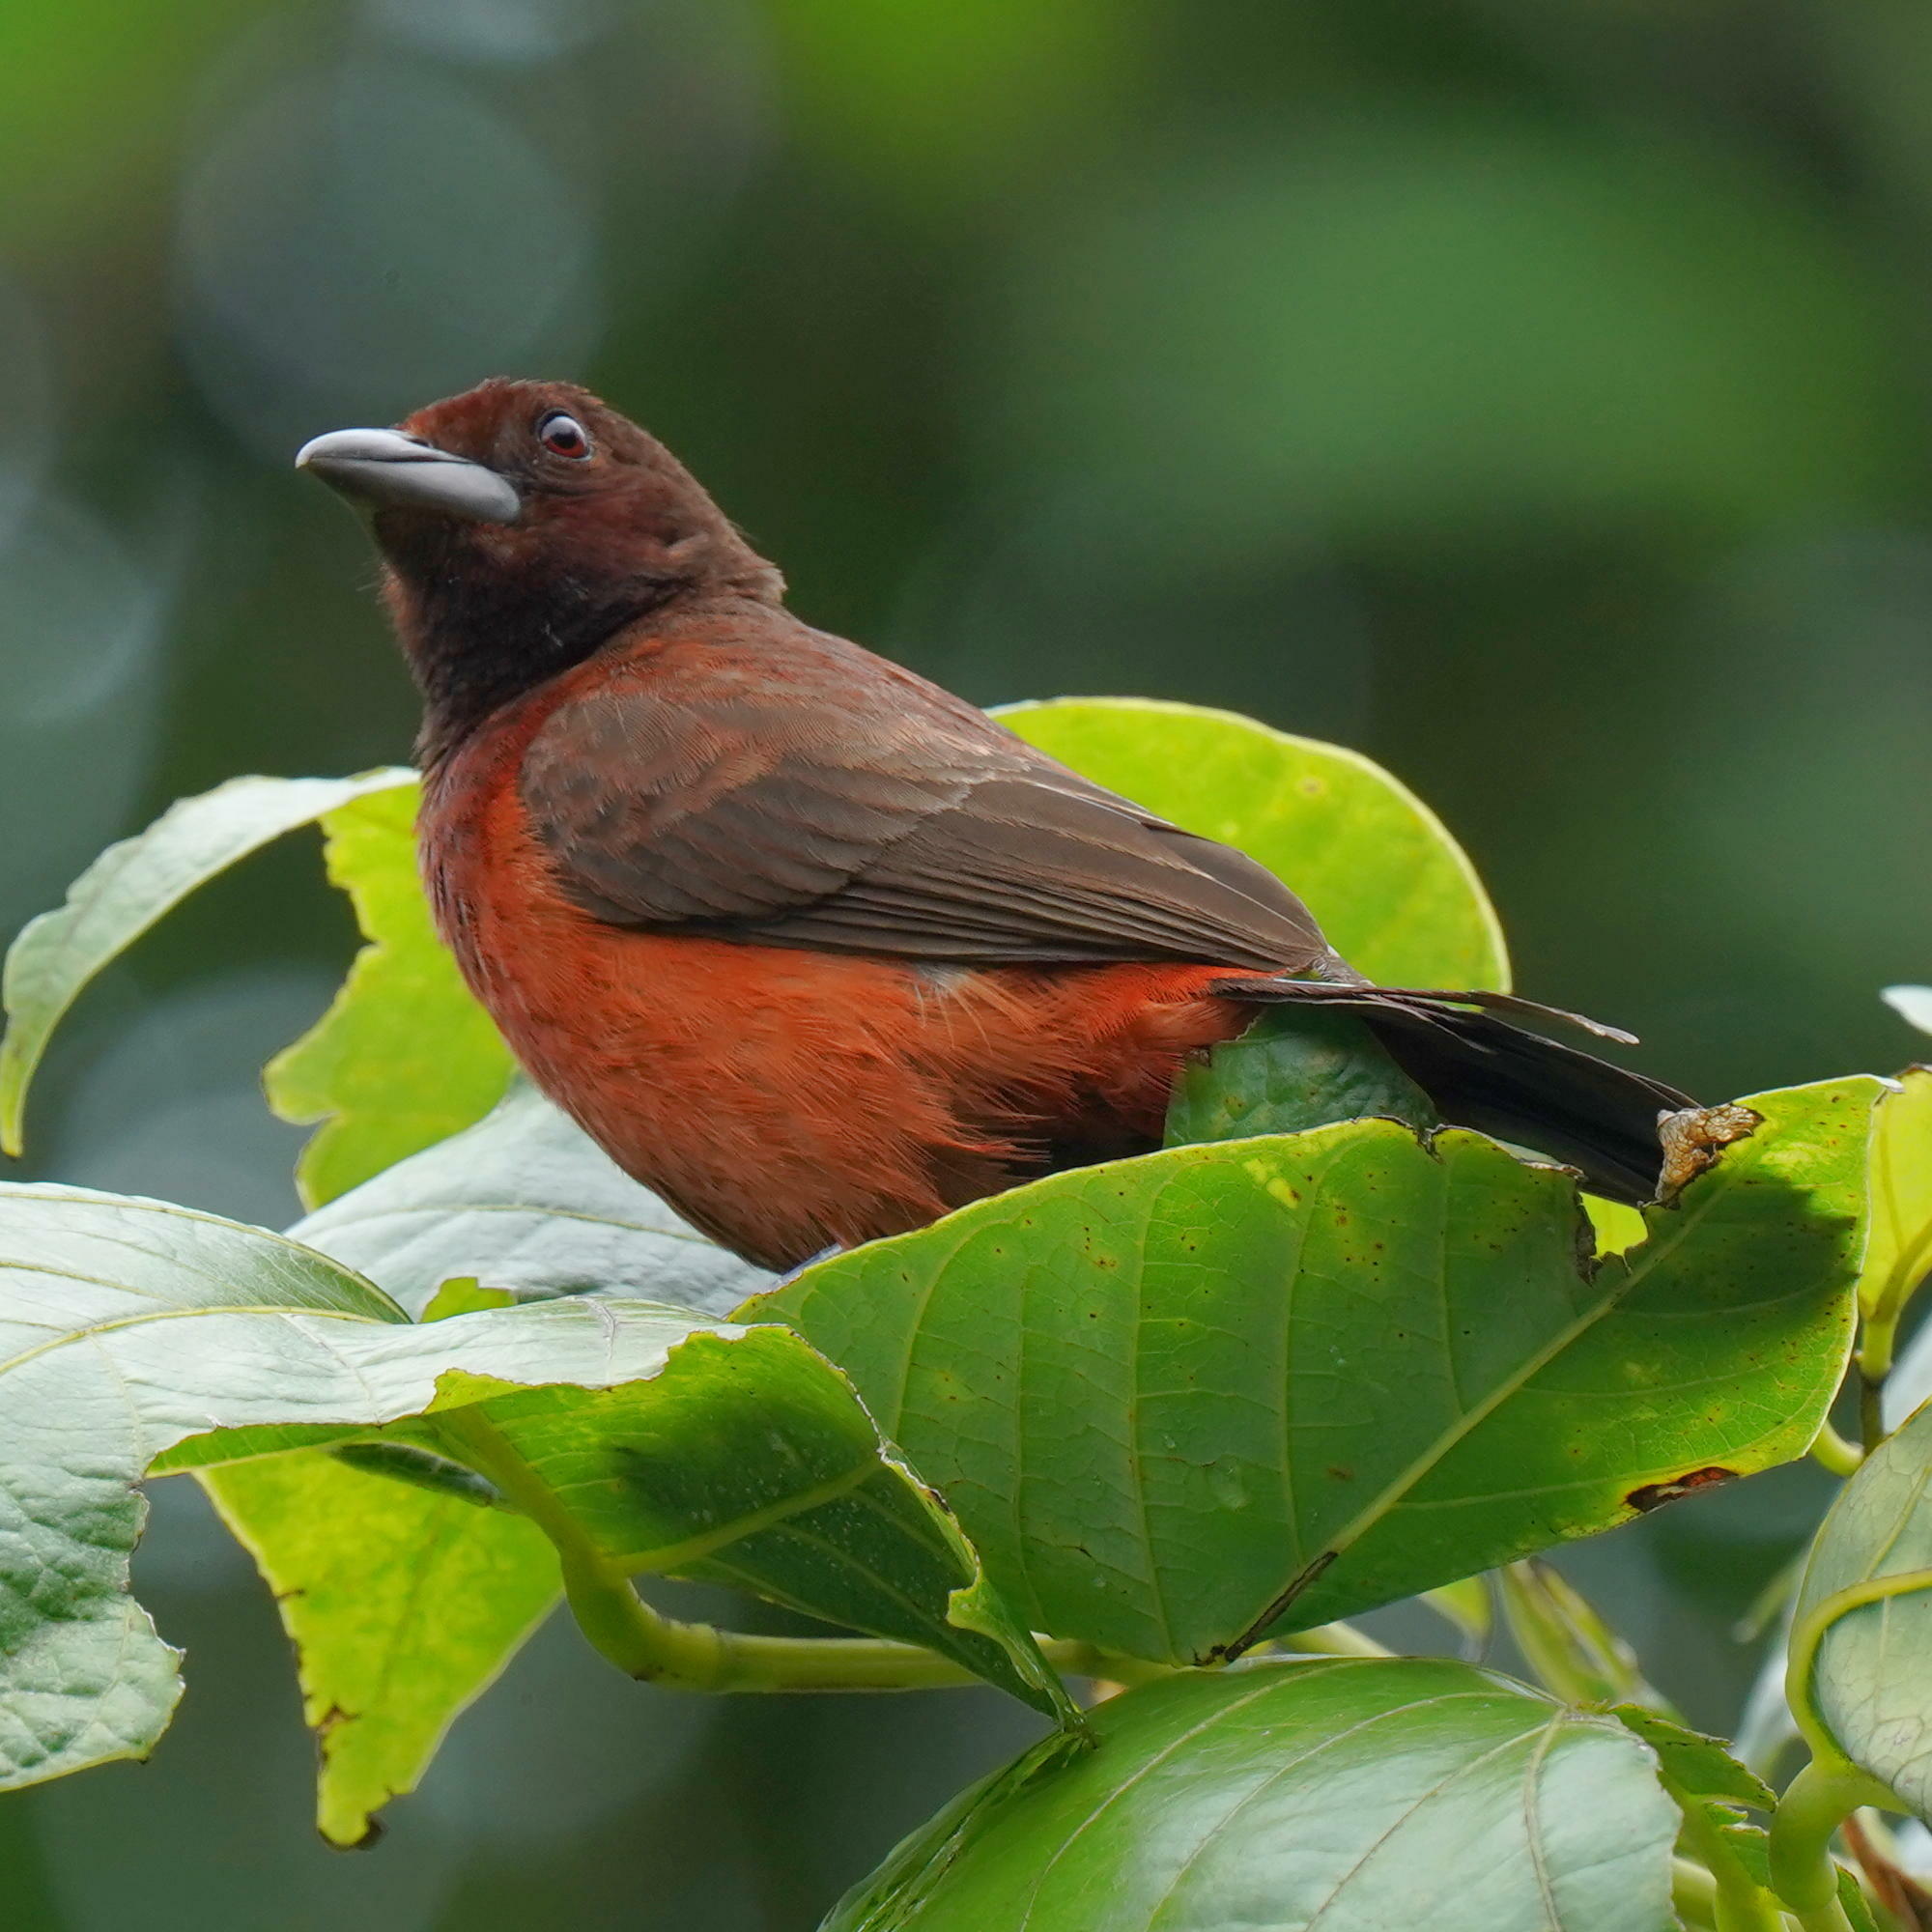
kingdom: Animalia
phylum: Chordata
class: Aves
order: Passeriformes
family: Thraupidae
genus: Ramphocelus
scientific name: Ramphocelus dimidiatus
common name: Crimson-backed tanager
